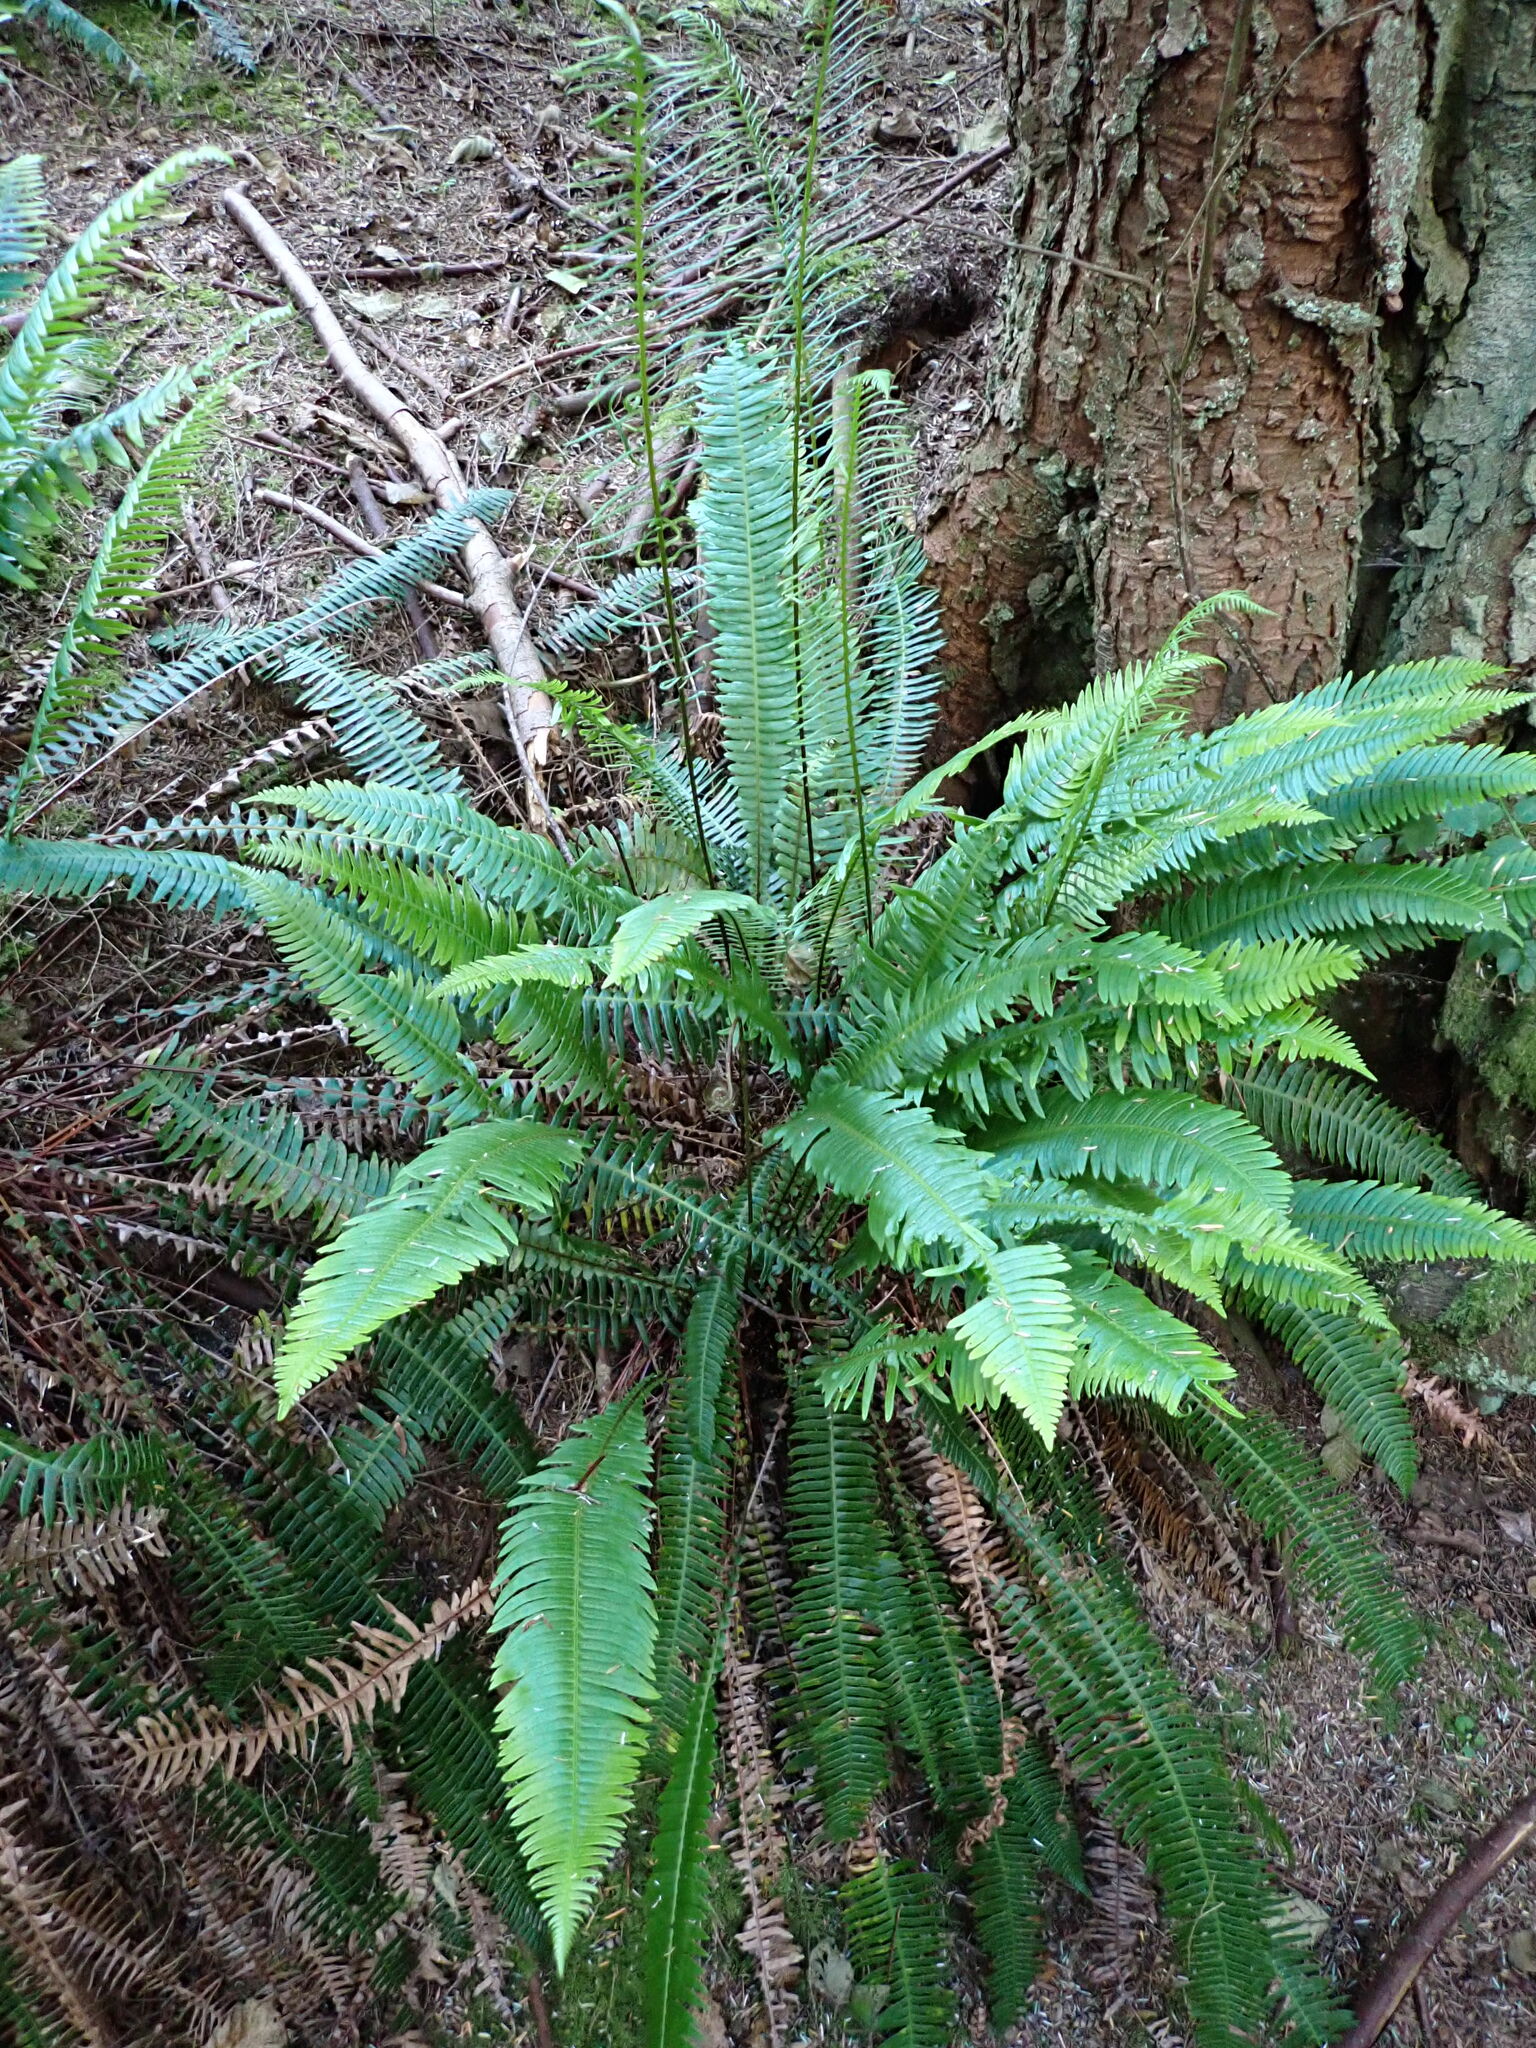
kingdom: Plantae
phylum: Tracheophyta
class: Polypodiopsida
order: Polypodiales
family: Blechnaceae
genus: Struthiopteris
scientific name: Struthiopteris spicant
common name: Deer fern
